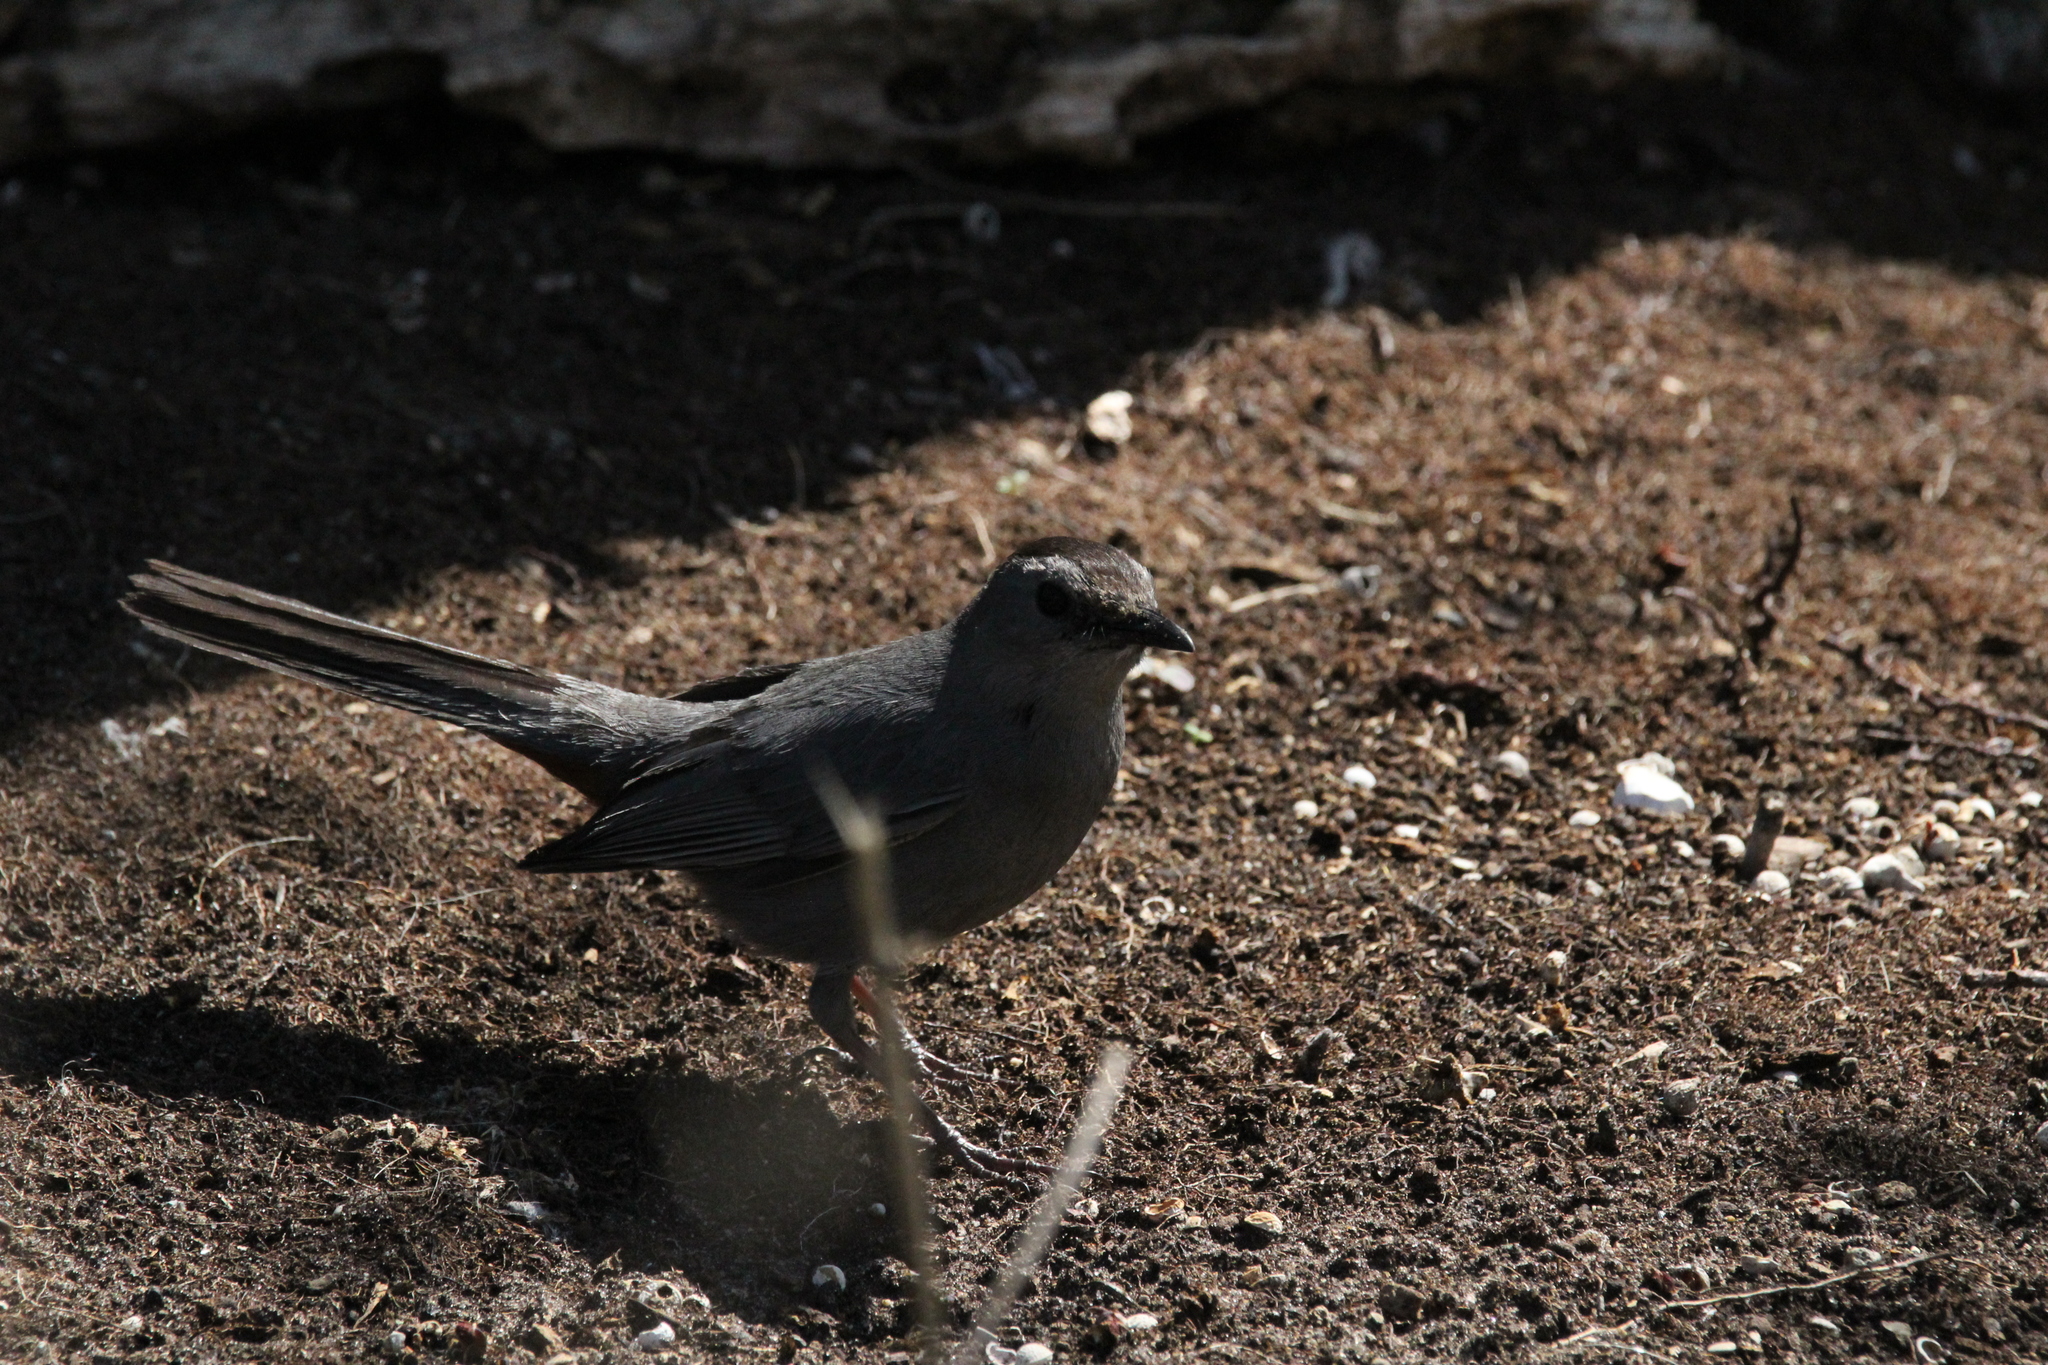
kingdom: Animalia
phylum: Chordata
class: Aves
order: Passeriformes
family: Mimidae
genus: Dumetella
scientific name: Dumetella carolinensis
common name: Gray catbird
